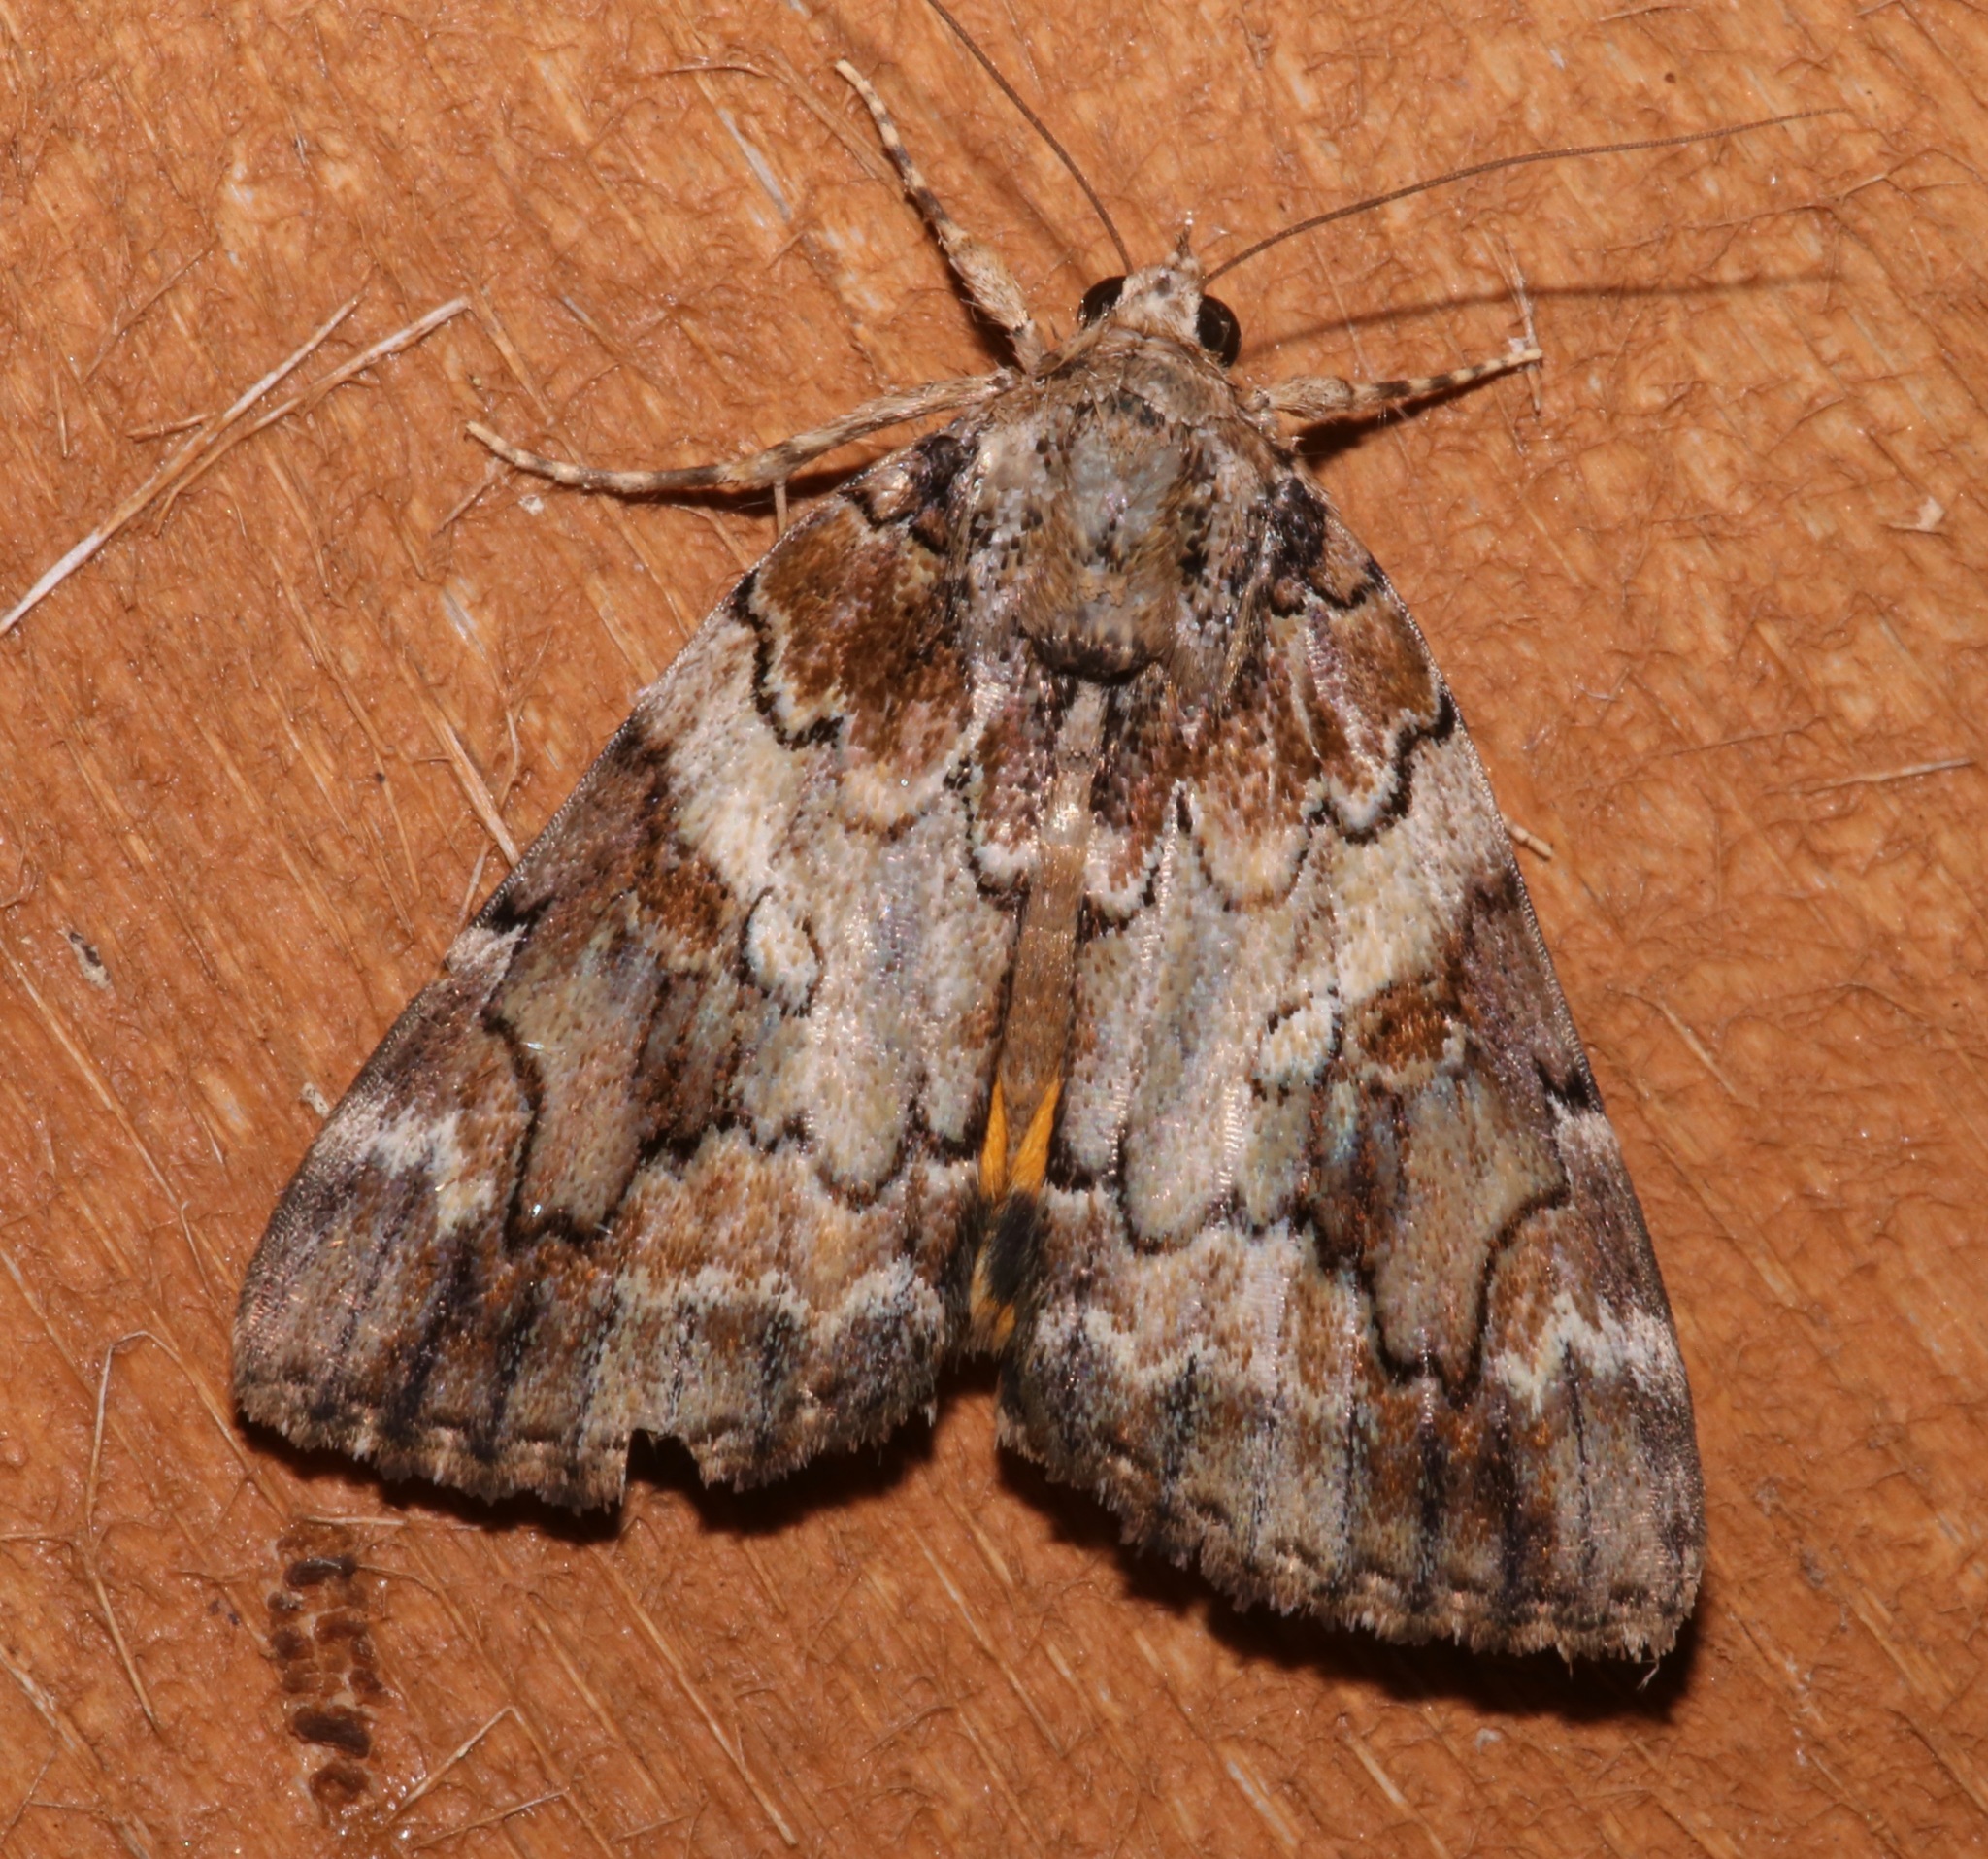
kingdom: Animalia
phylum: Arthropoda
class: Insecta
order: Lepidoptera
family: Erebidae
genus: Catocala
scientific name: Catocala micronympha
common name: Little nymph underwing
